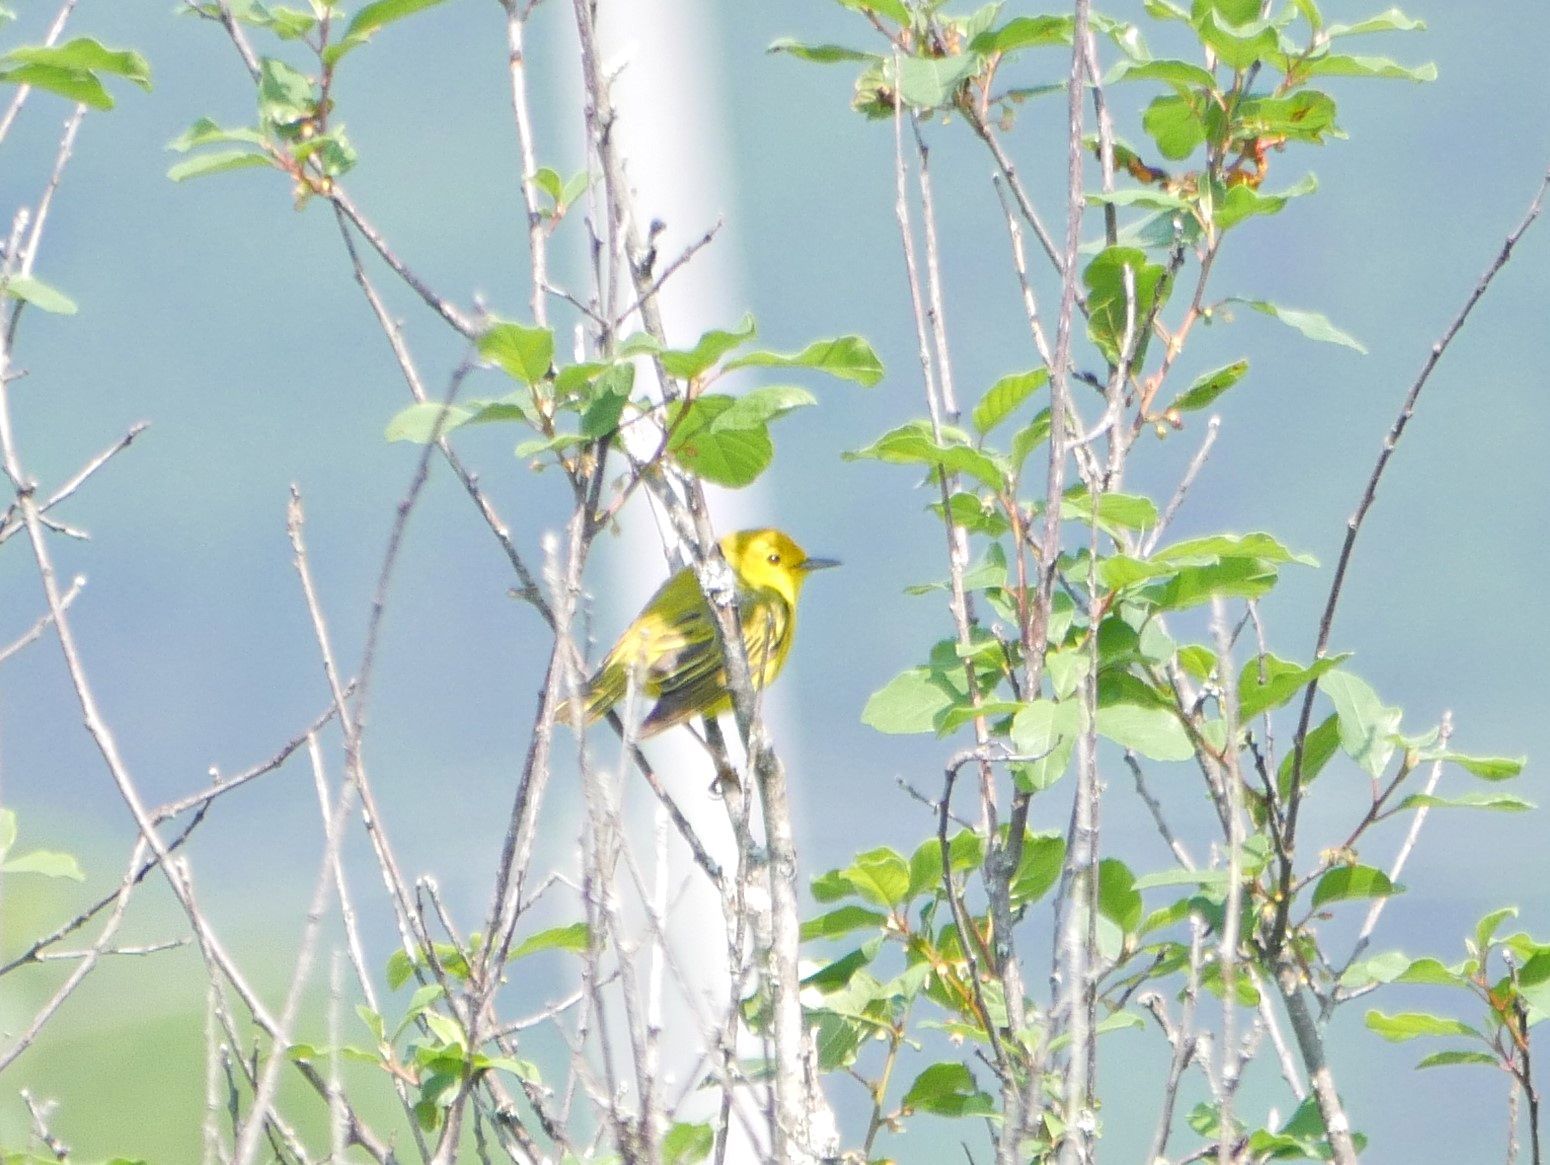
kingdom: Animalia
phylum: Chordata
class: Aves
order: Passeriformes
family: Parulidae
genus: Setophaga
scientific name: Setophaga petechia
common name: Yellow warbler
